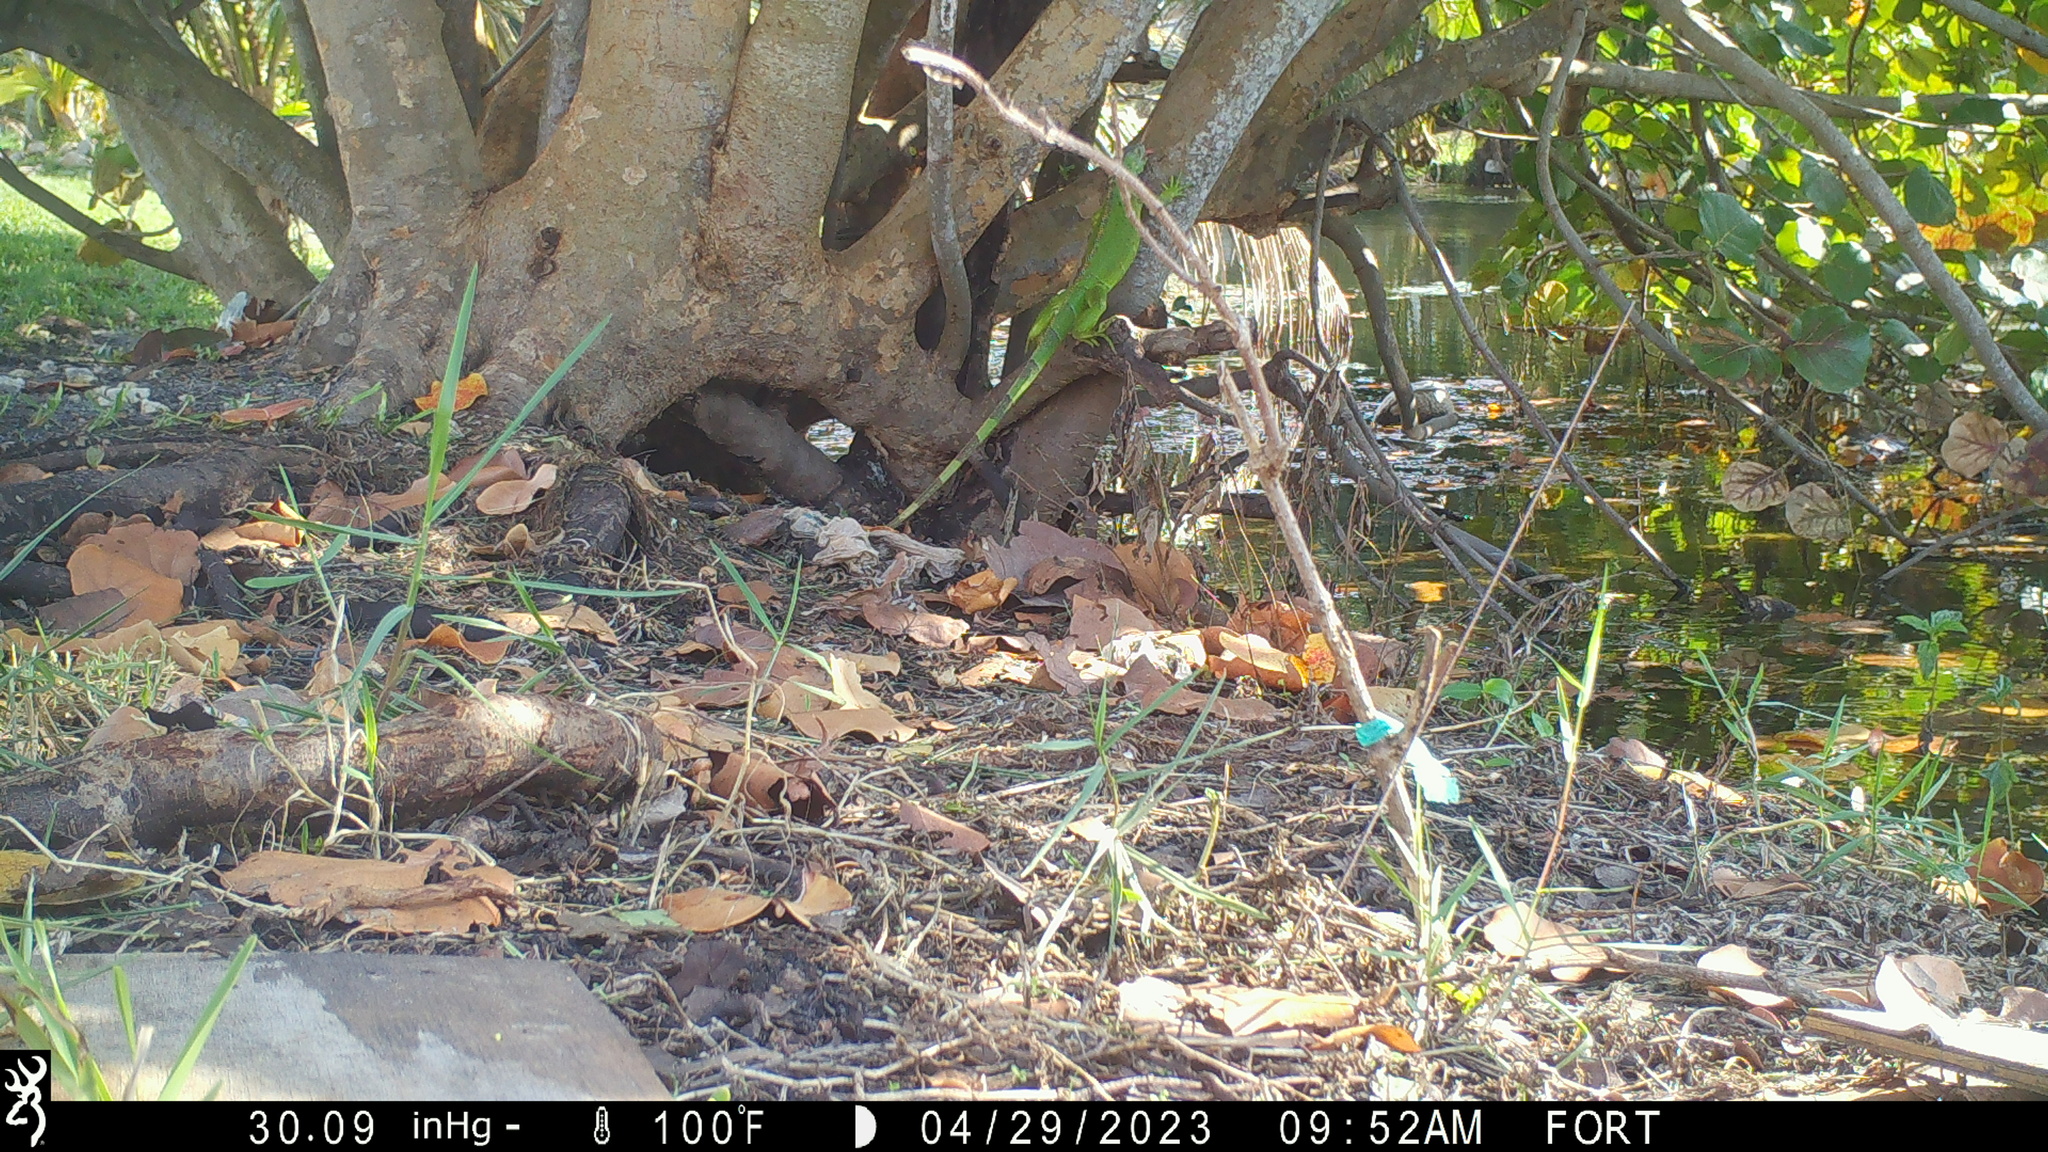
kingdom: Animalia
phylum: Chordata
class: Squamata
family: Iguanidae
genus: Iguana
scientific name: Iguana iguana
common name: Green iguana
